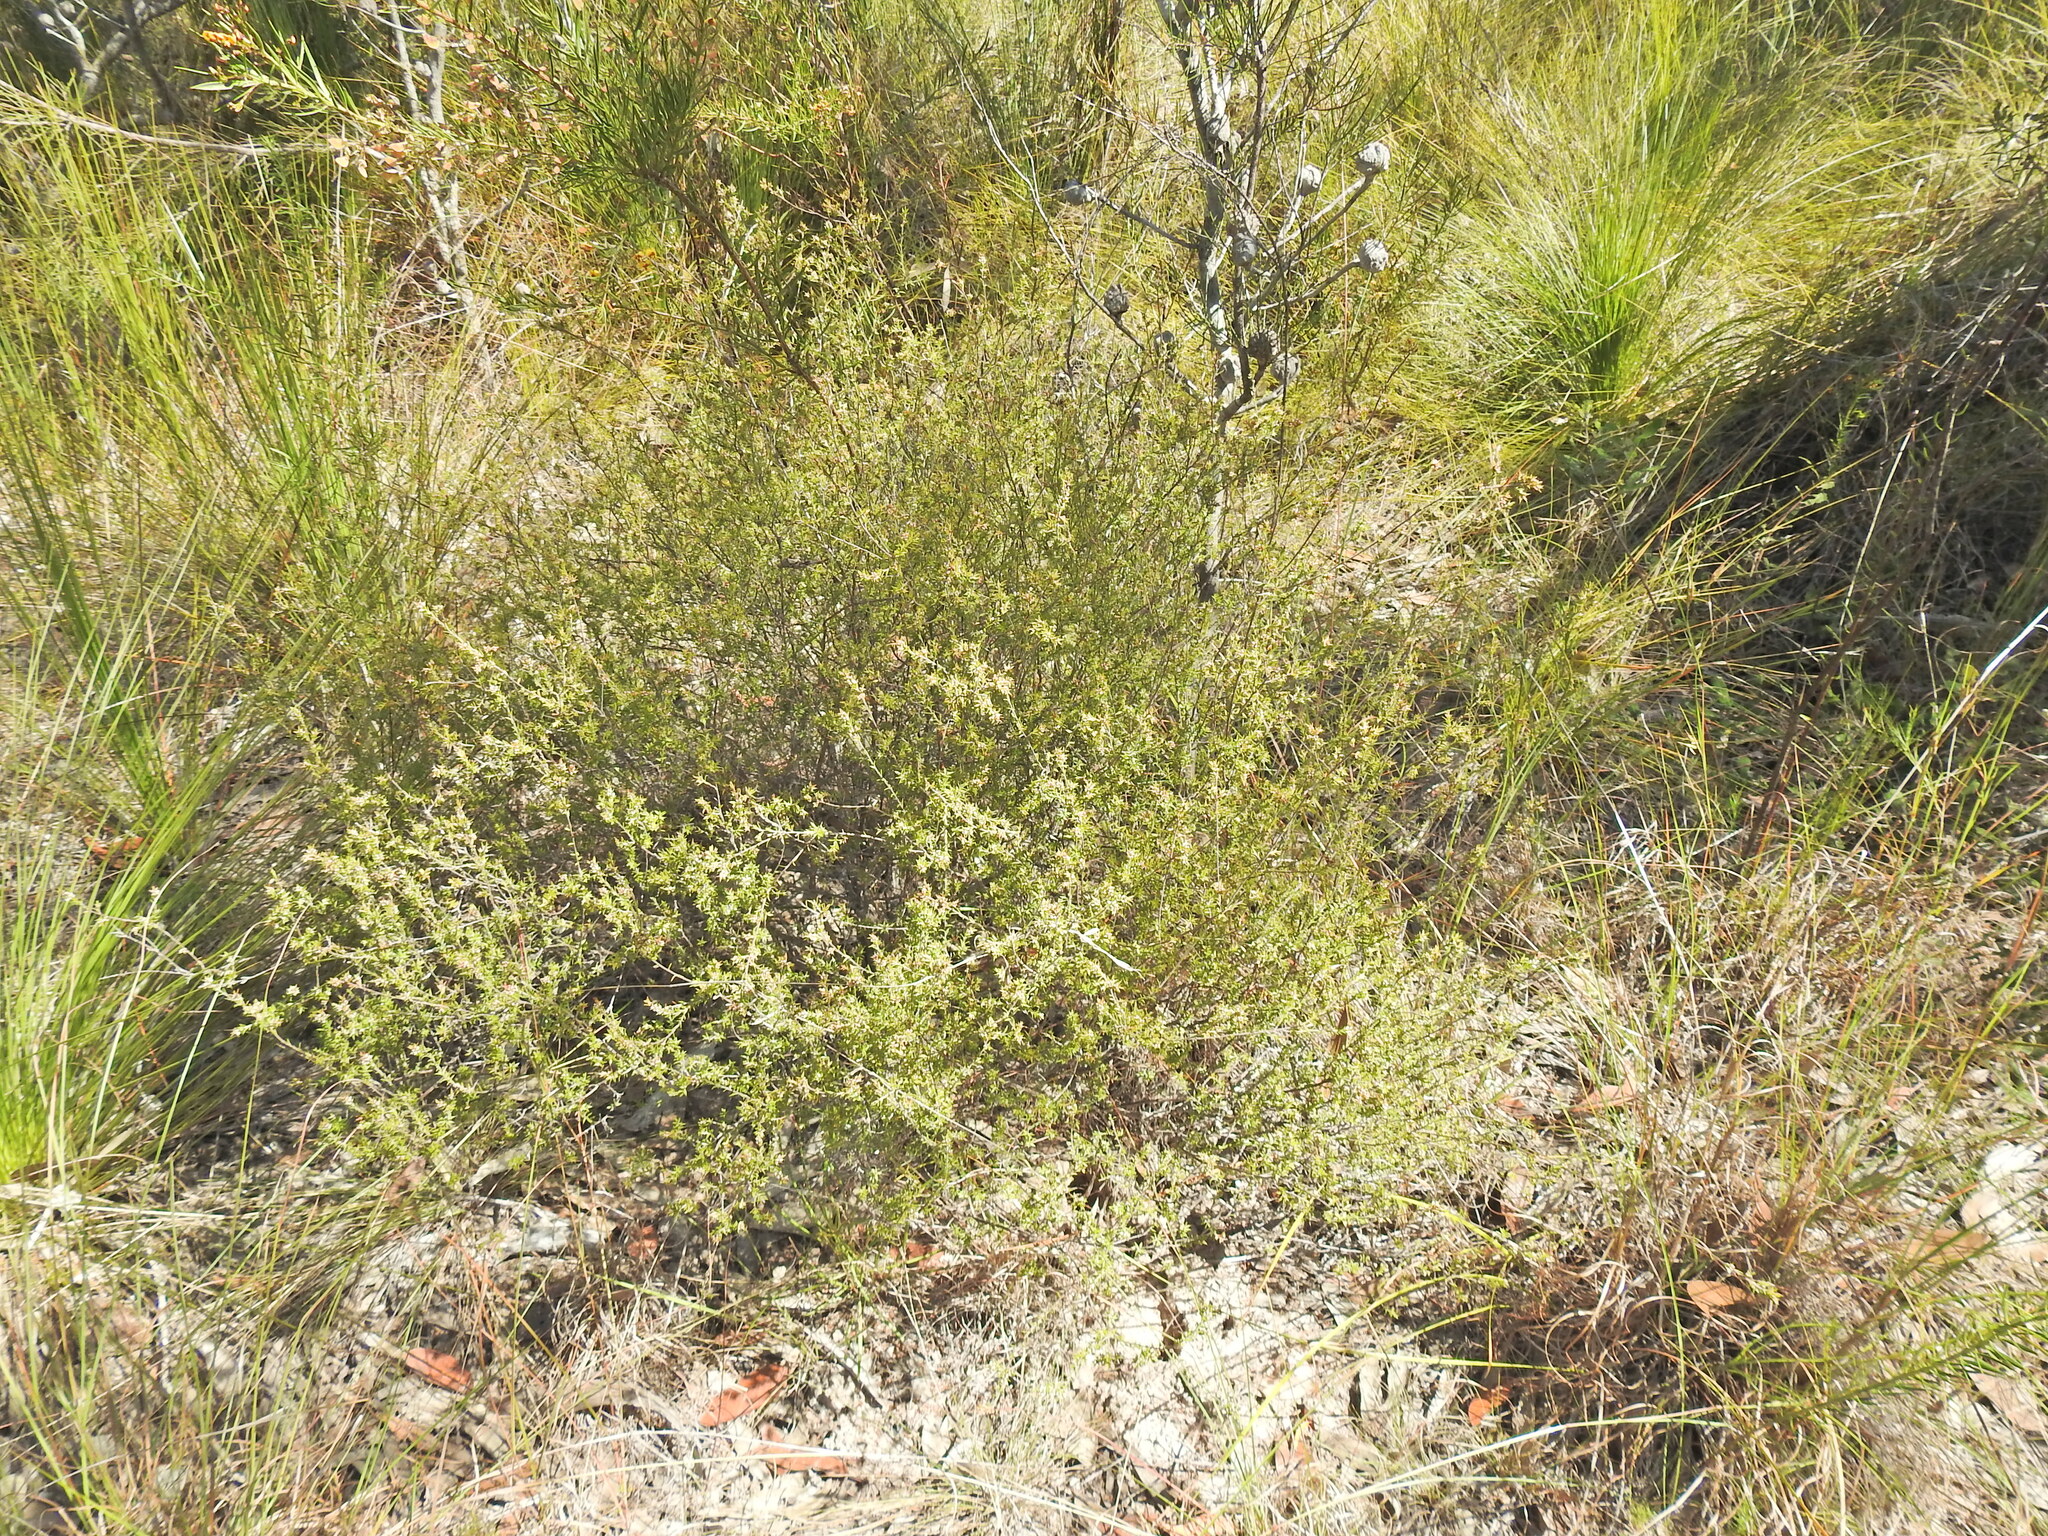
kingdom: Plantae
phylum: Tracheophyta
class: Magnoliopsida
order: Ericales
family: Ericaceae
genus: Styphelia
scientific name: Styphelia
